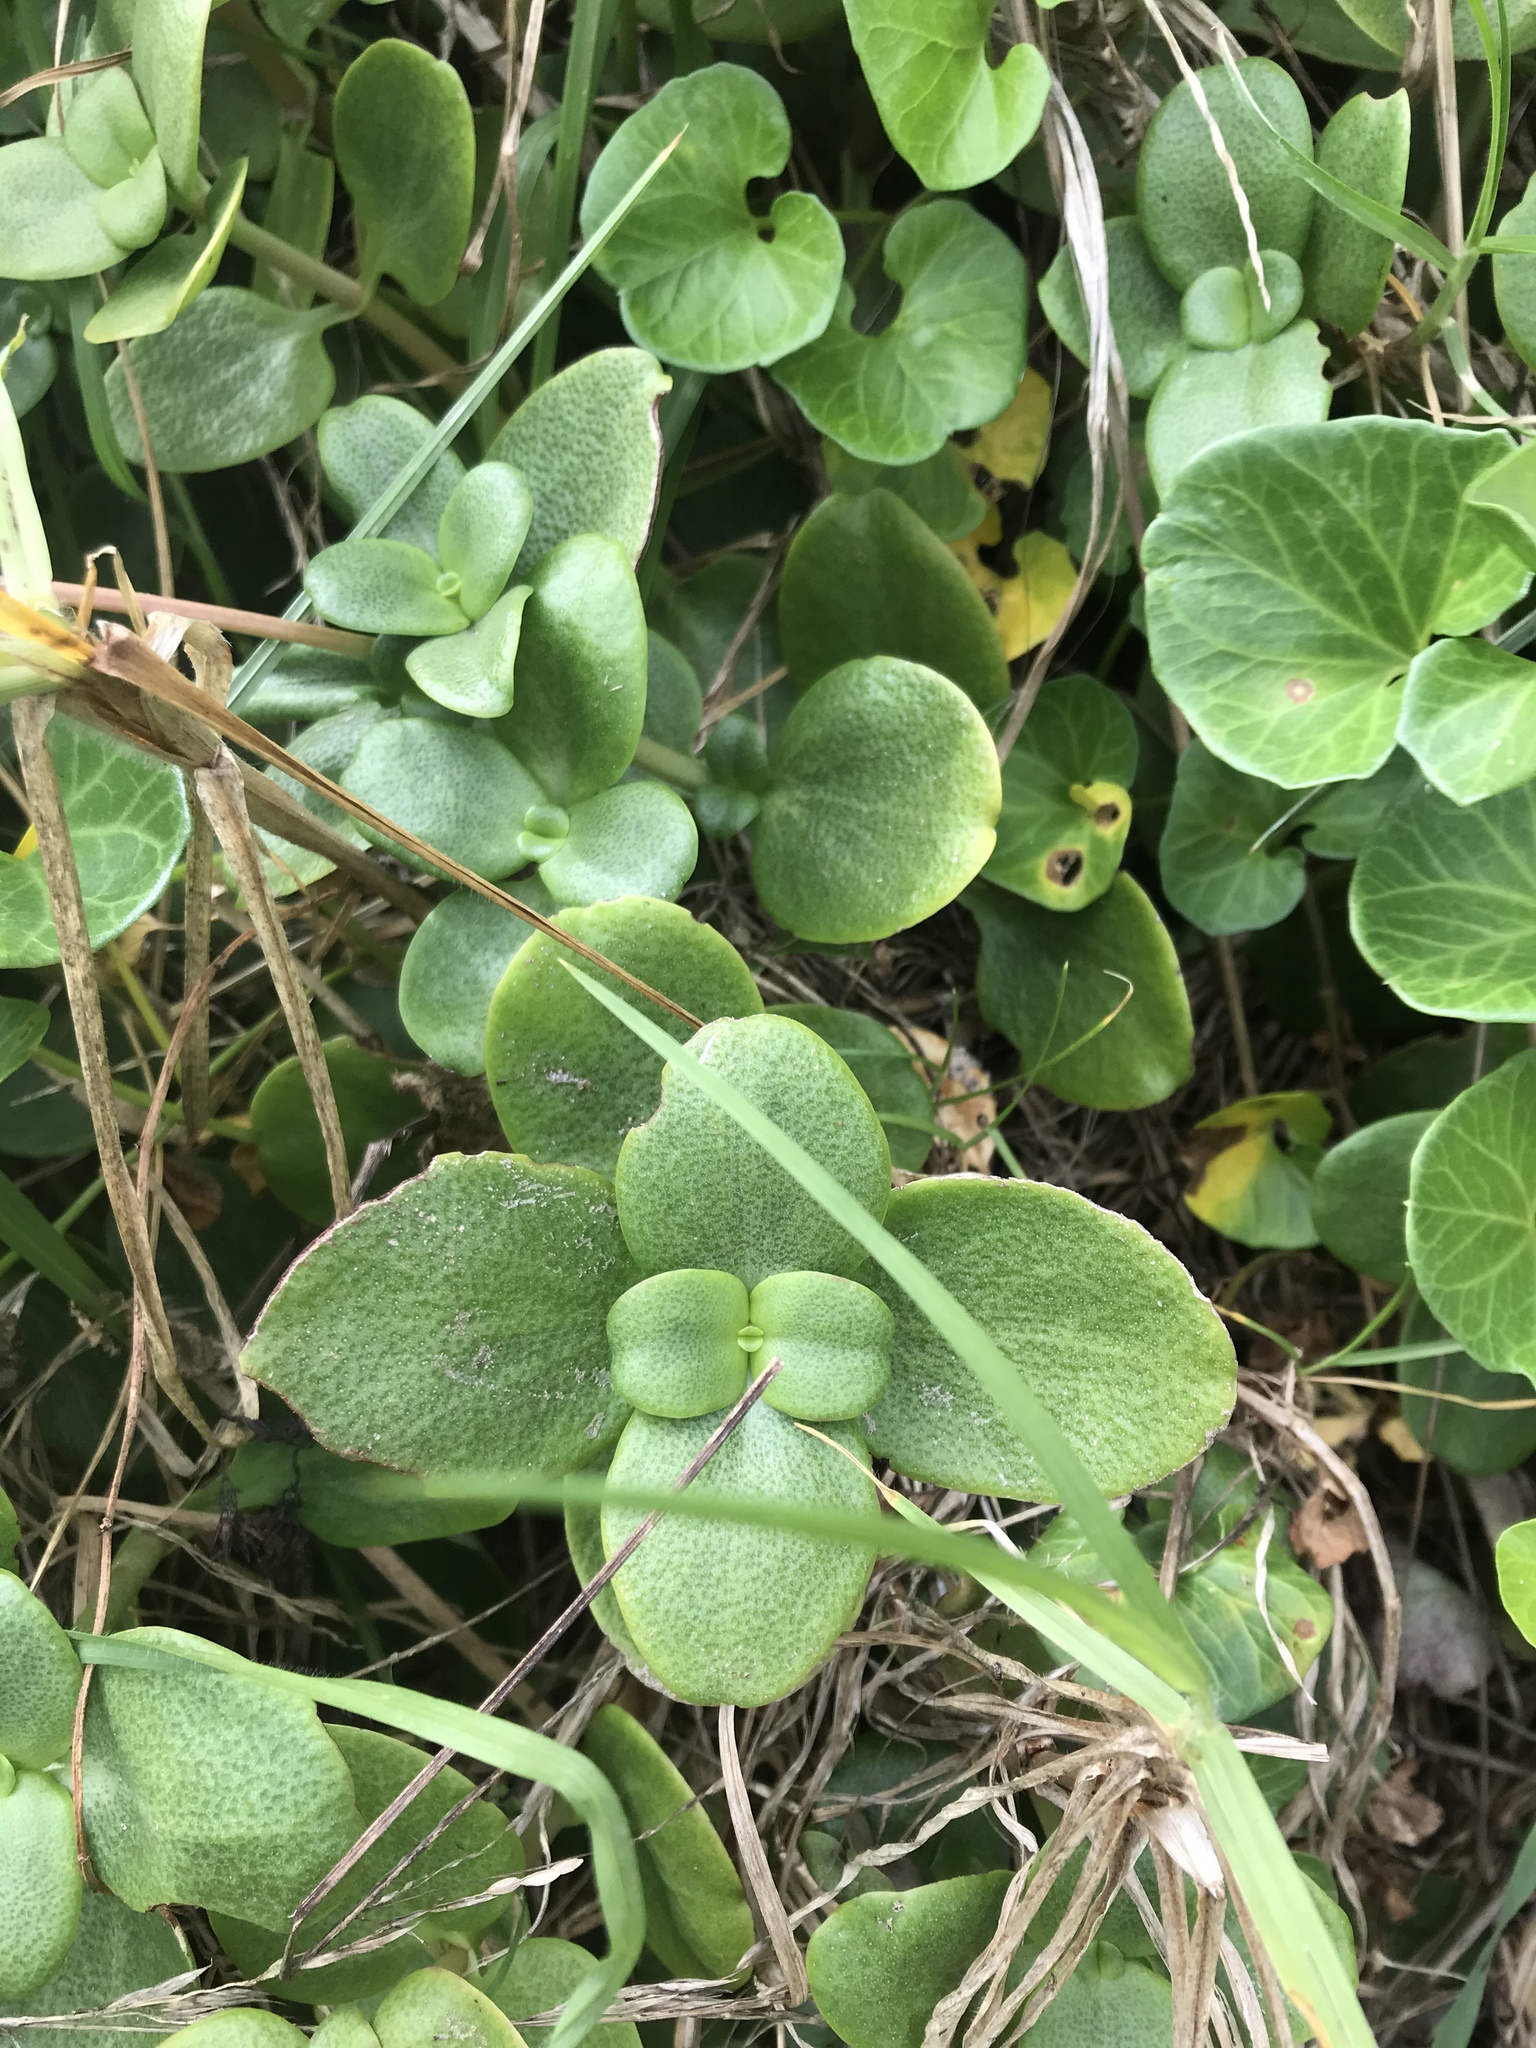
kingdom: Plantae
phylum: Tracheophyta
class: Magnoliopsida
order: Saxifragales
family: Crassulaceae
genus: Crassula
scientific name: Crassula multicava
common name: Cape province pygmyweed
